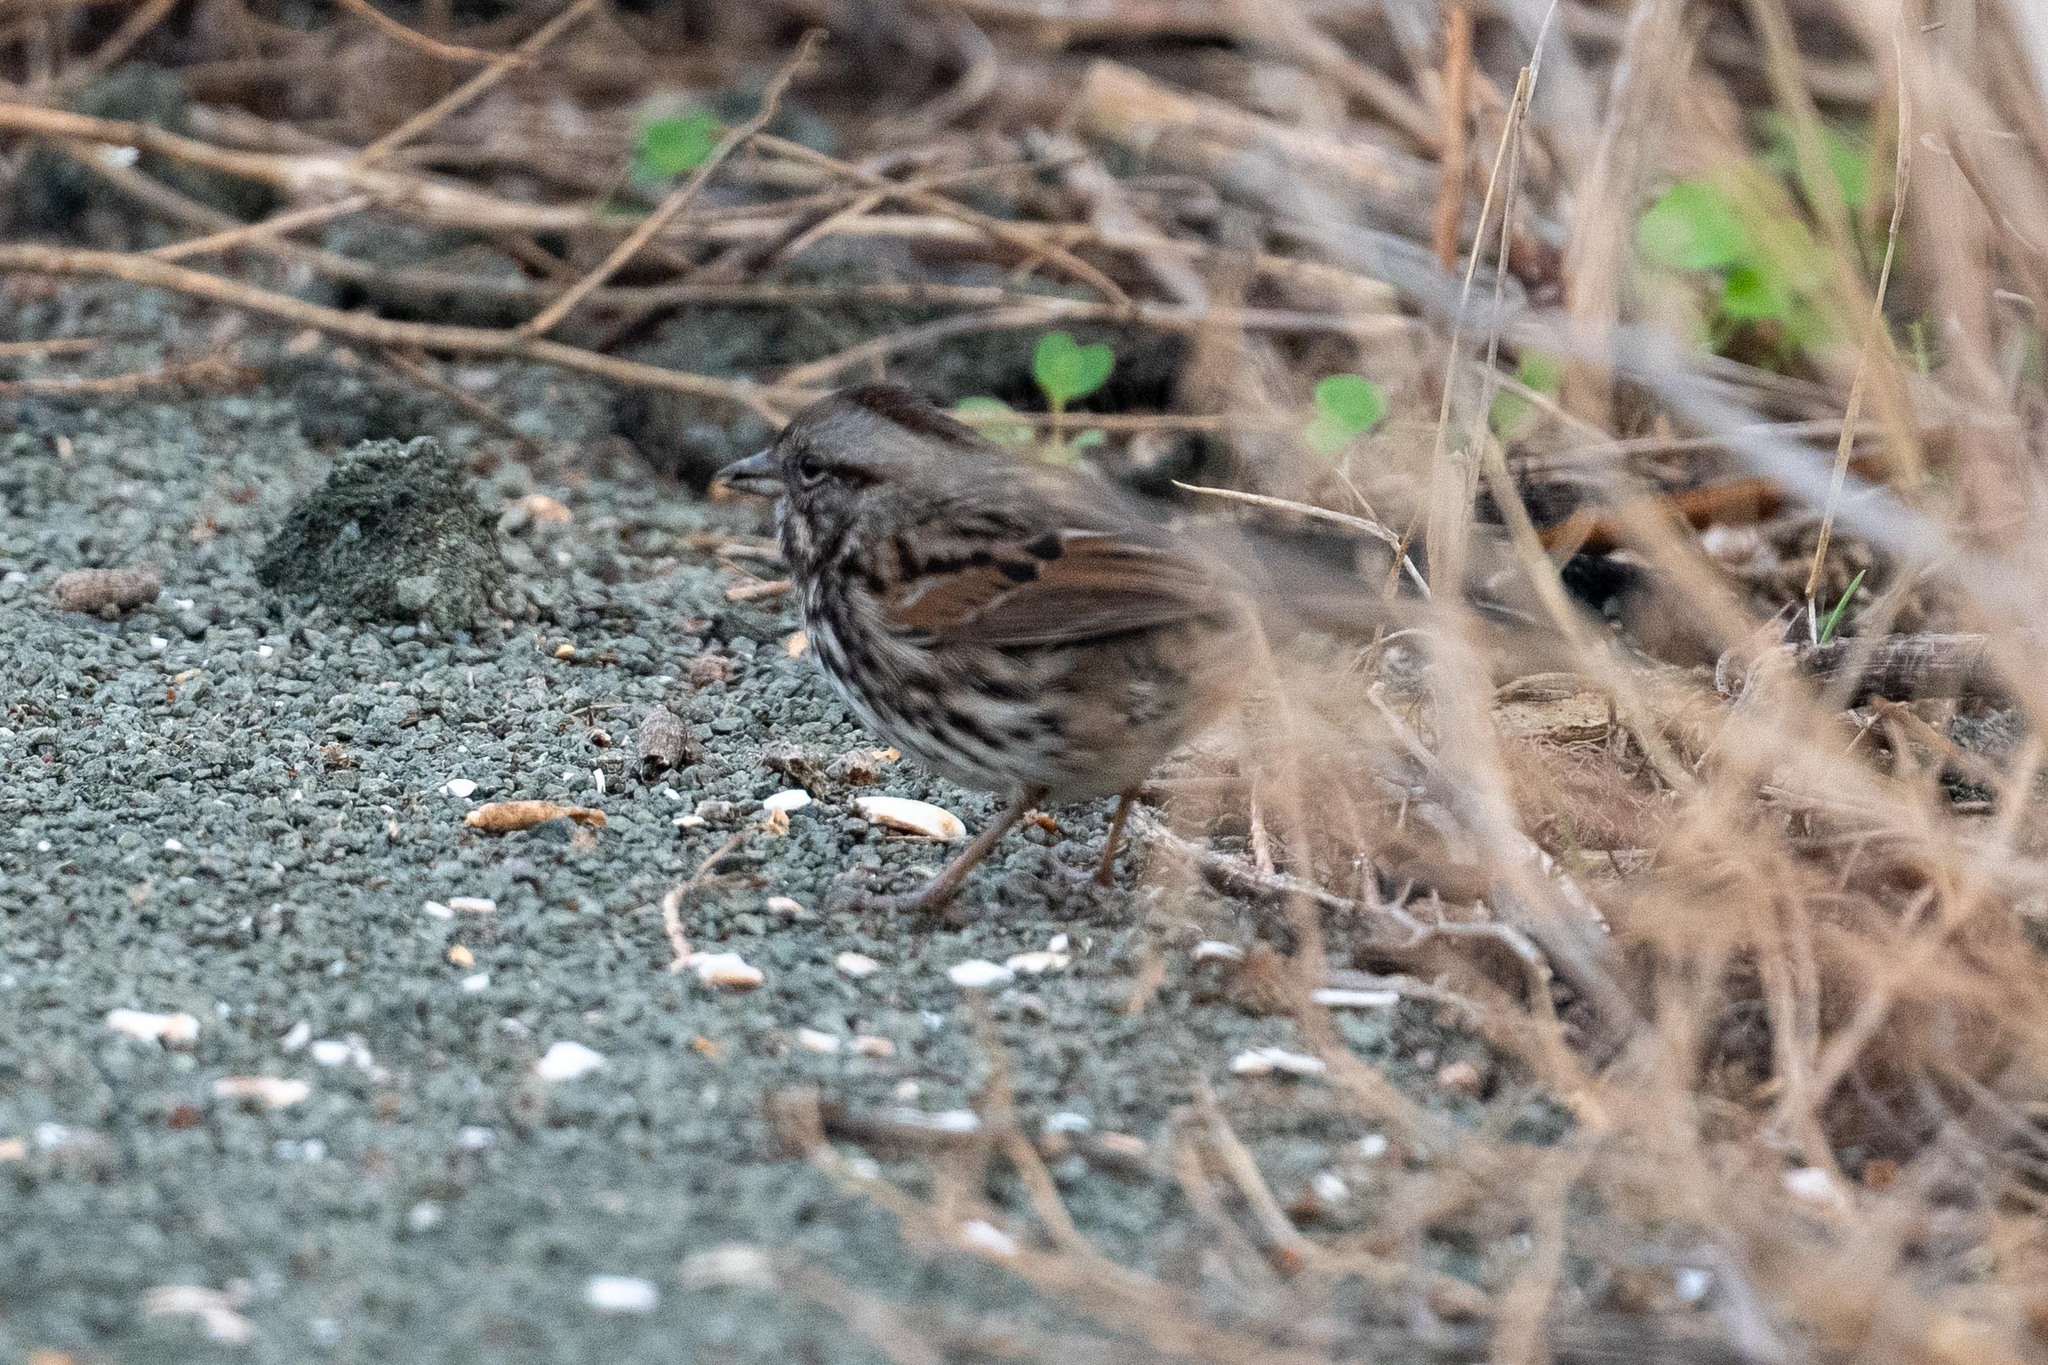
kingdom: Animalia
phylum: Chordata
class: Aves
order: Passeriformes
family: Passerellidae
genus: Melospiza
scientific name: Melospiza melodia
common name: Song sparrow
